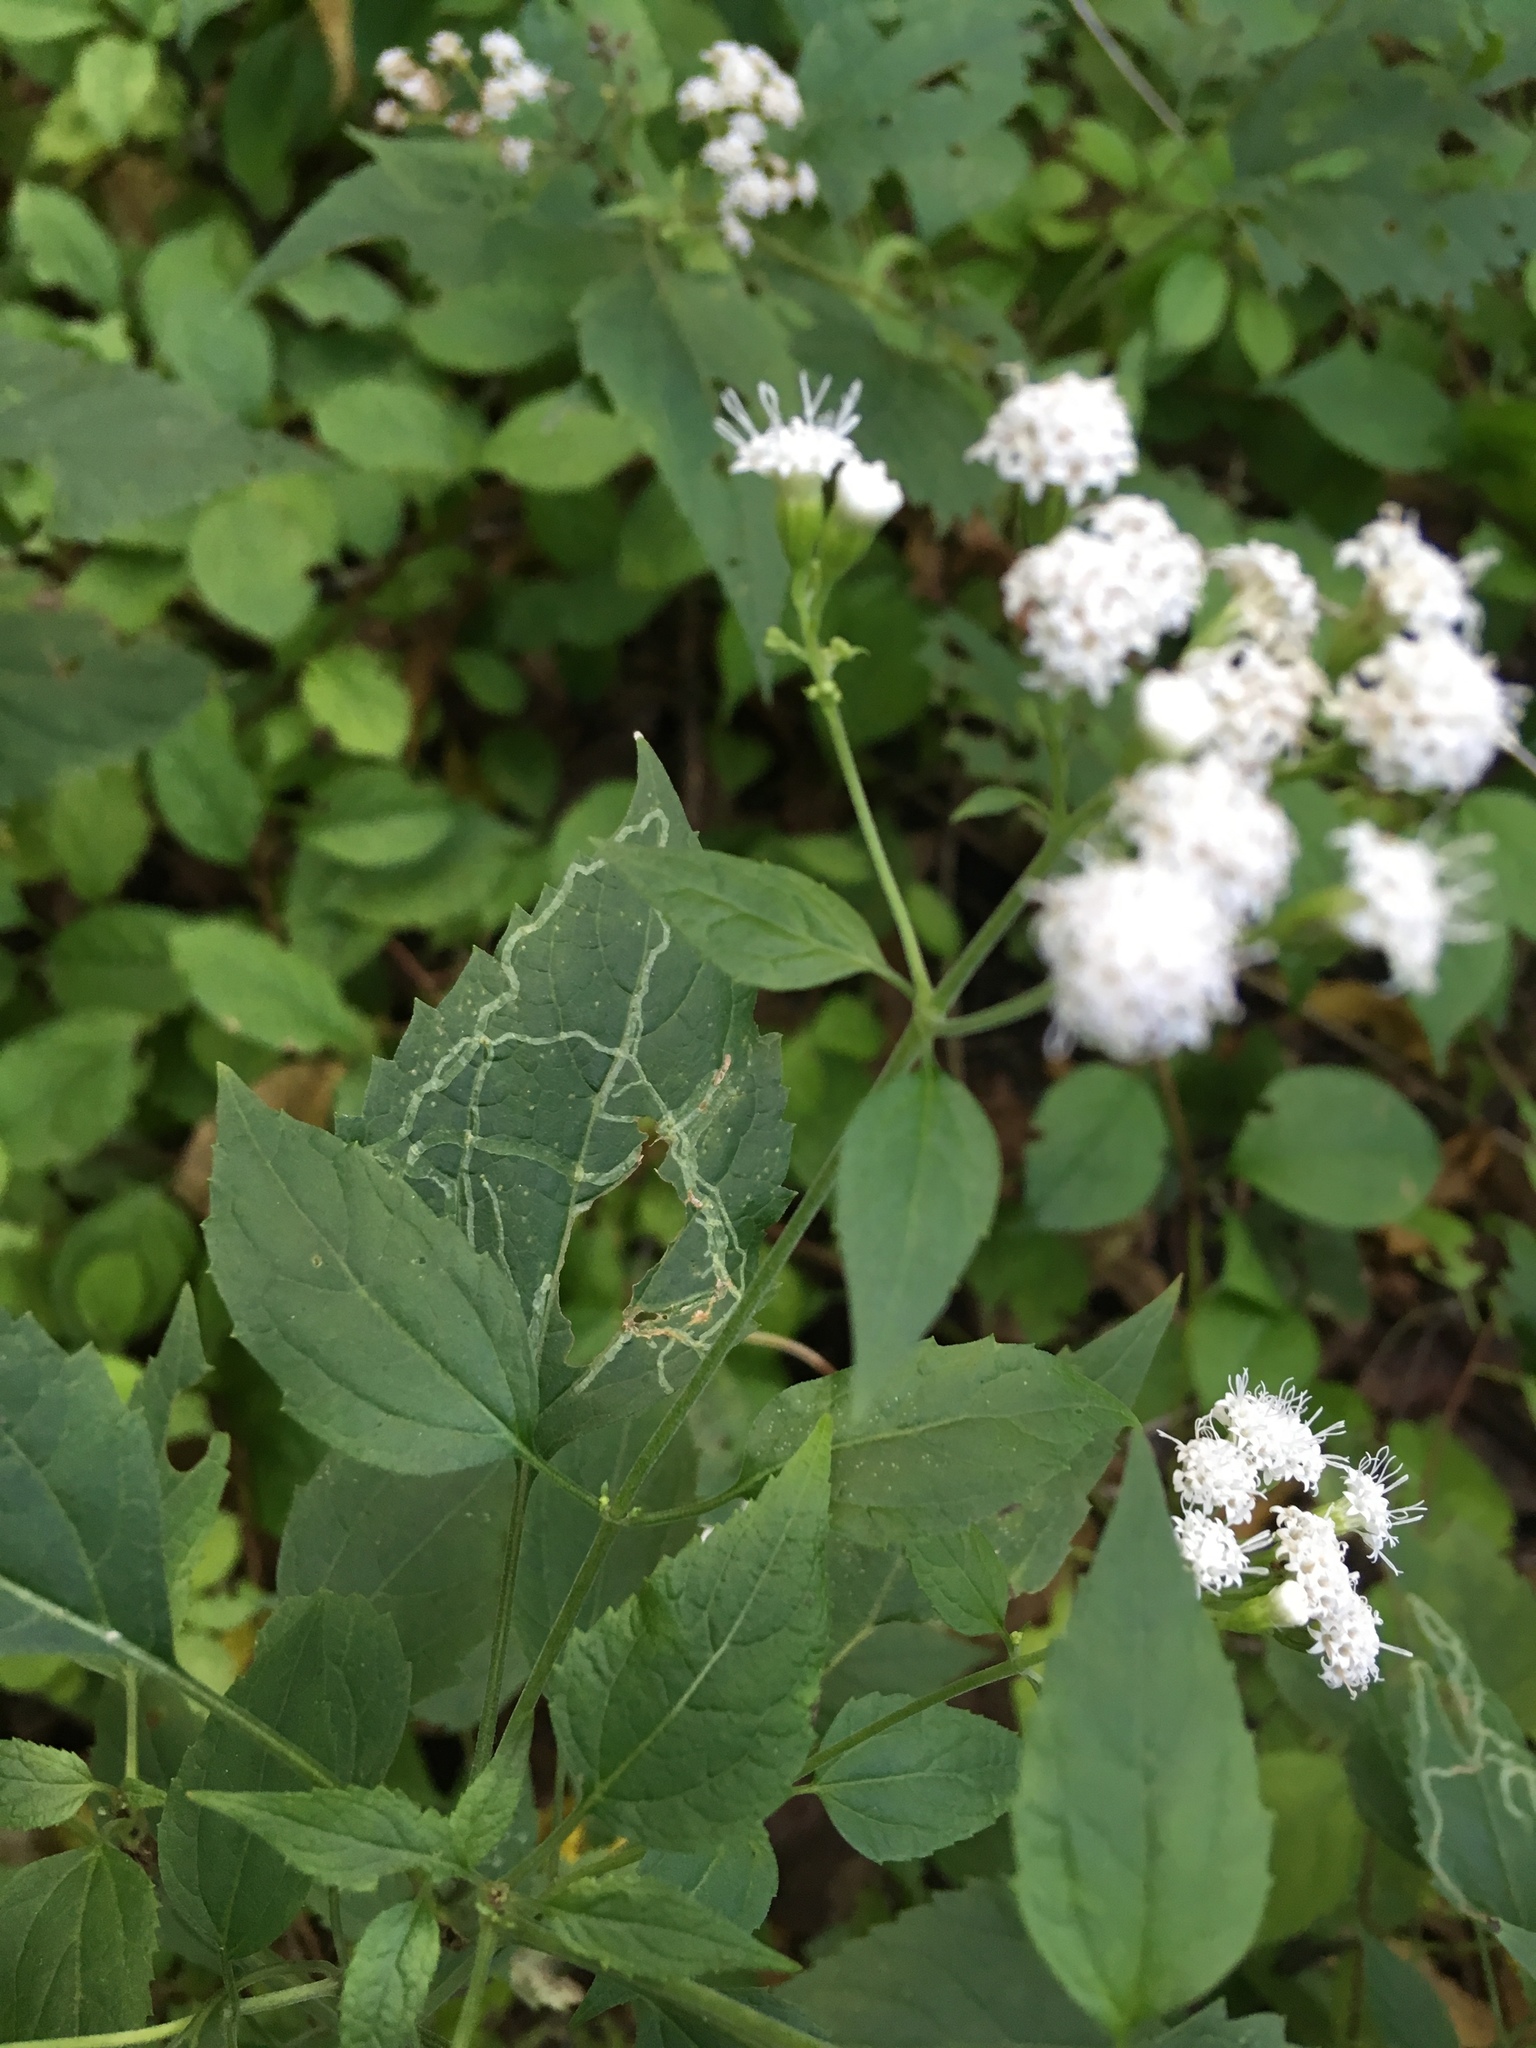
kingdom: Plantae
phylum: Tracheophyta
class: Magnoliopsida
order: Asterales
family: Asteraceae
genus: Ageratina
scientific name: Ageratina altissima
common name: White snakeroot
